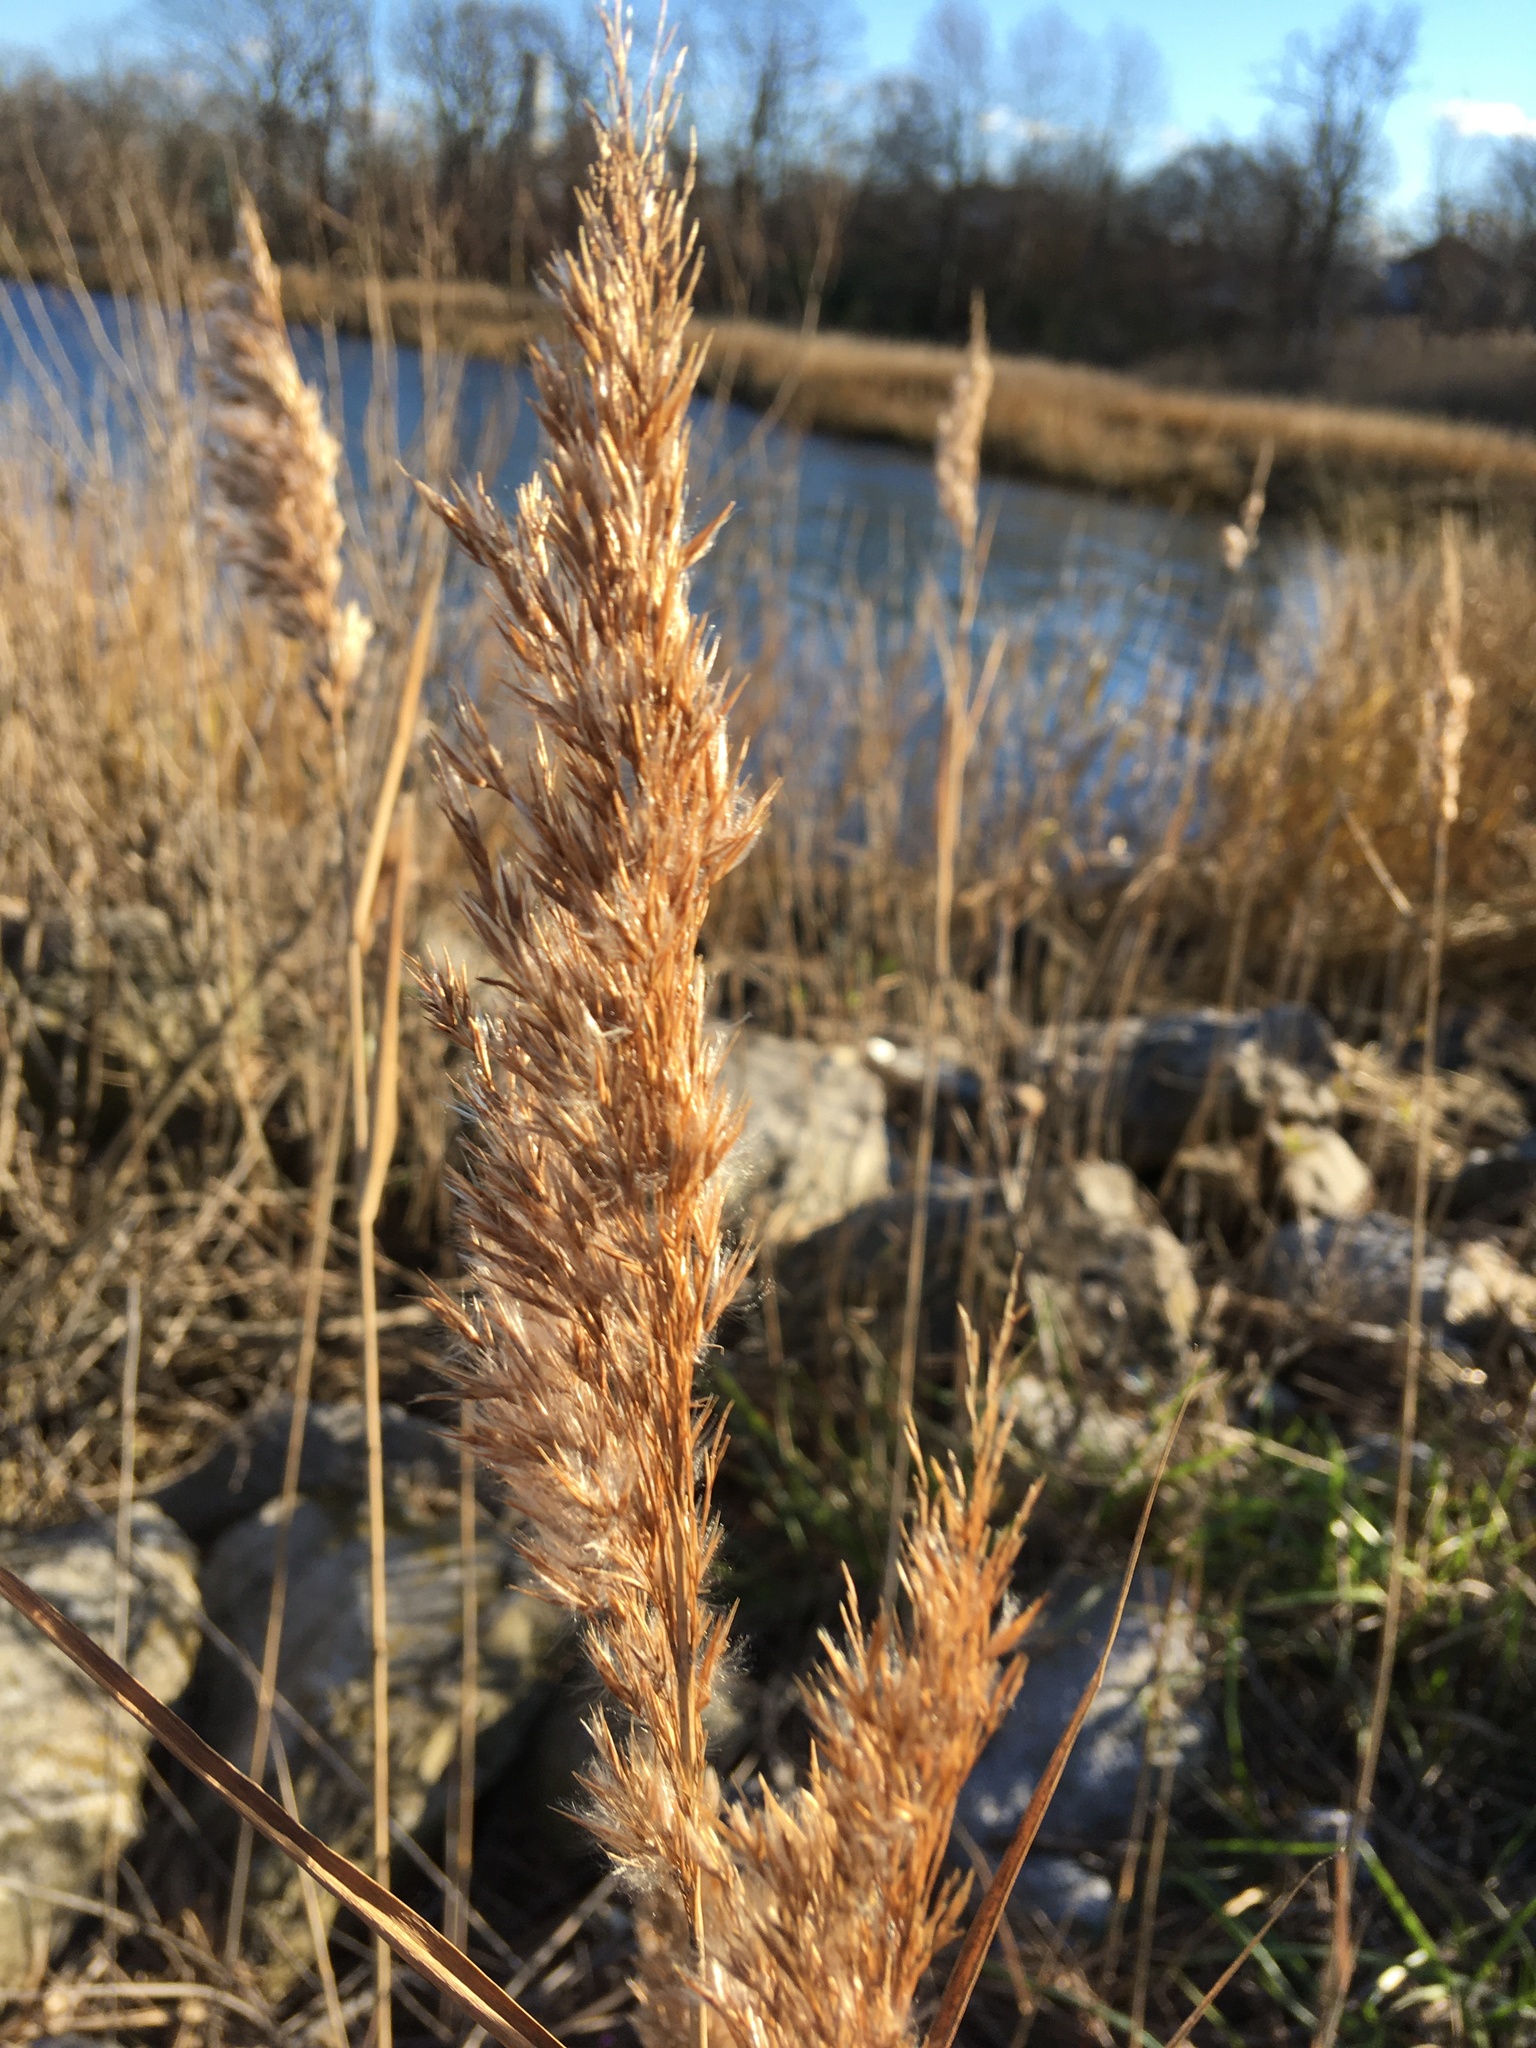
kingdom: Plantae
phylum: Tracheophyta
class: Liliopsida
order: Poales
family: Poaceae
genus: Phragmites
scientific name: Phragmites australis
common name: Common reed
